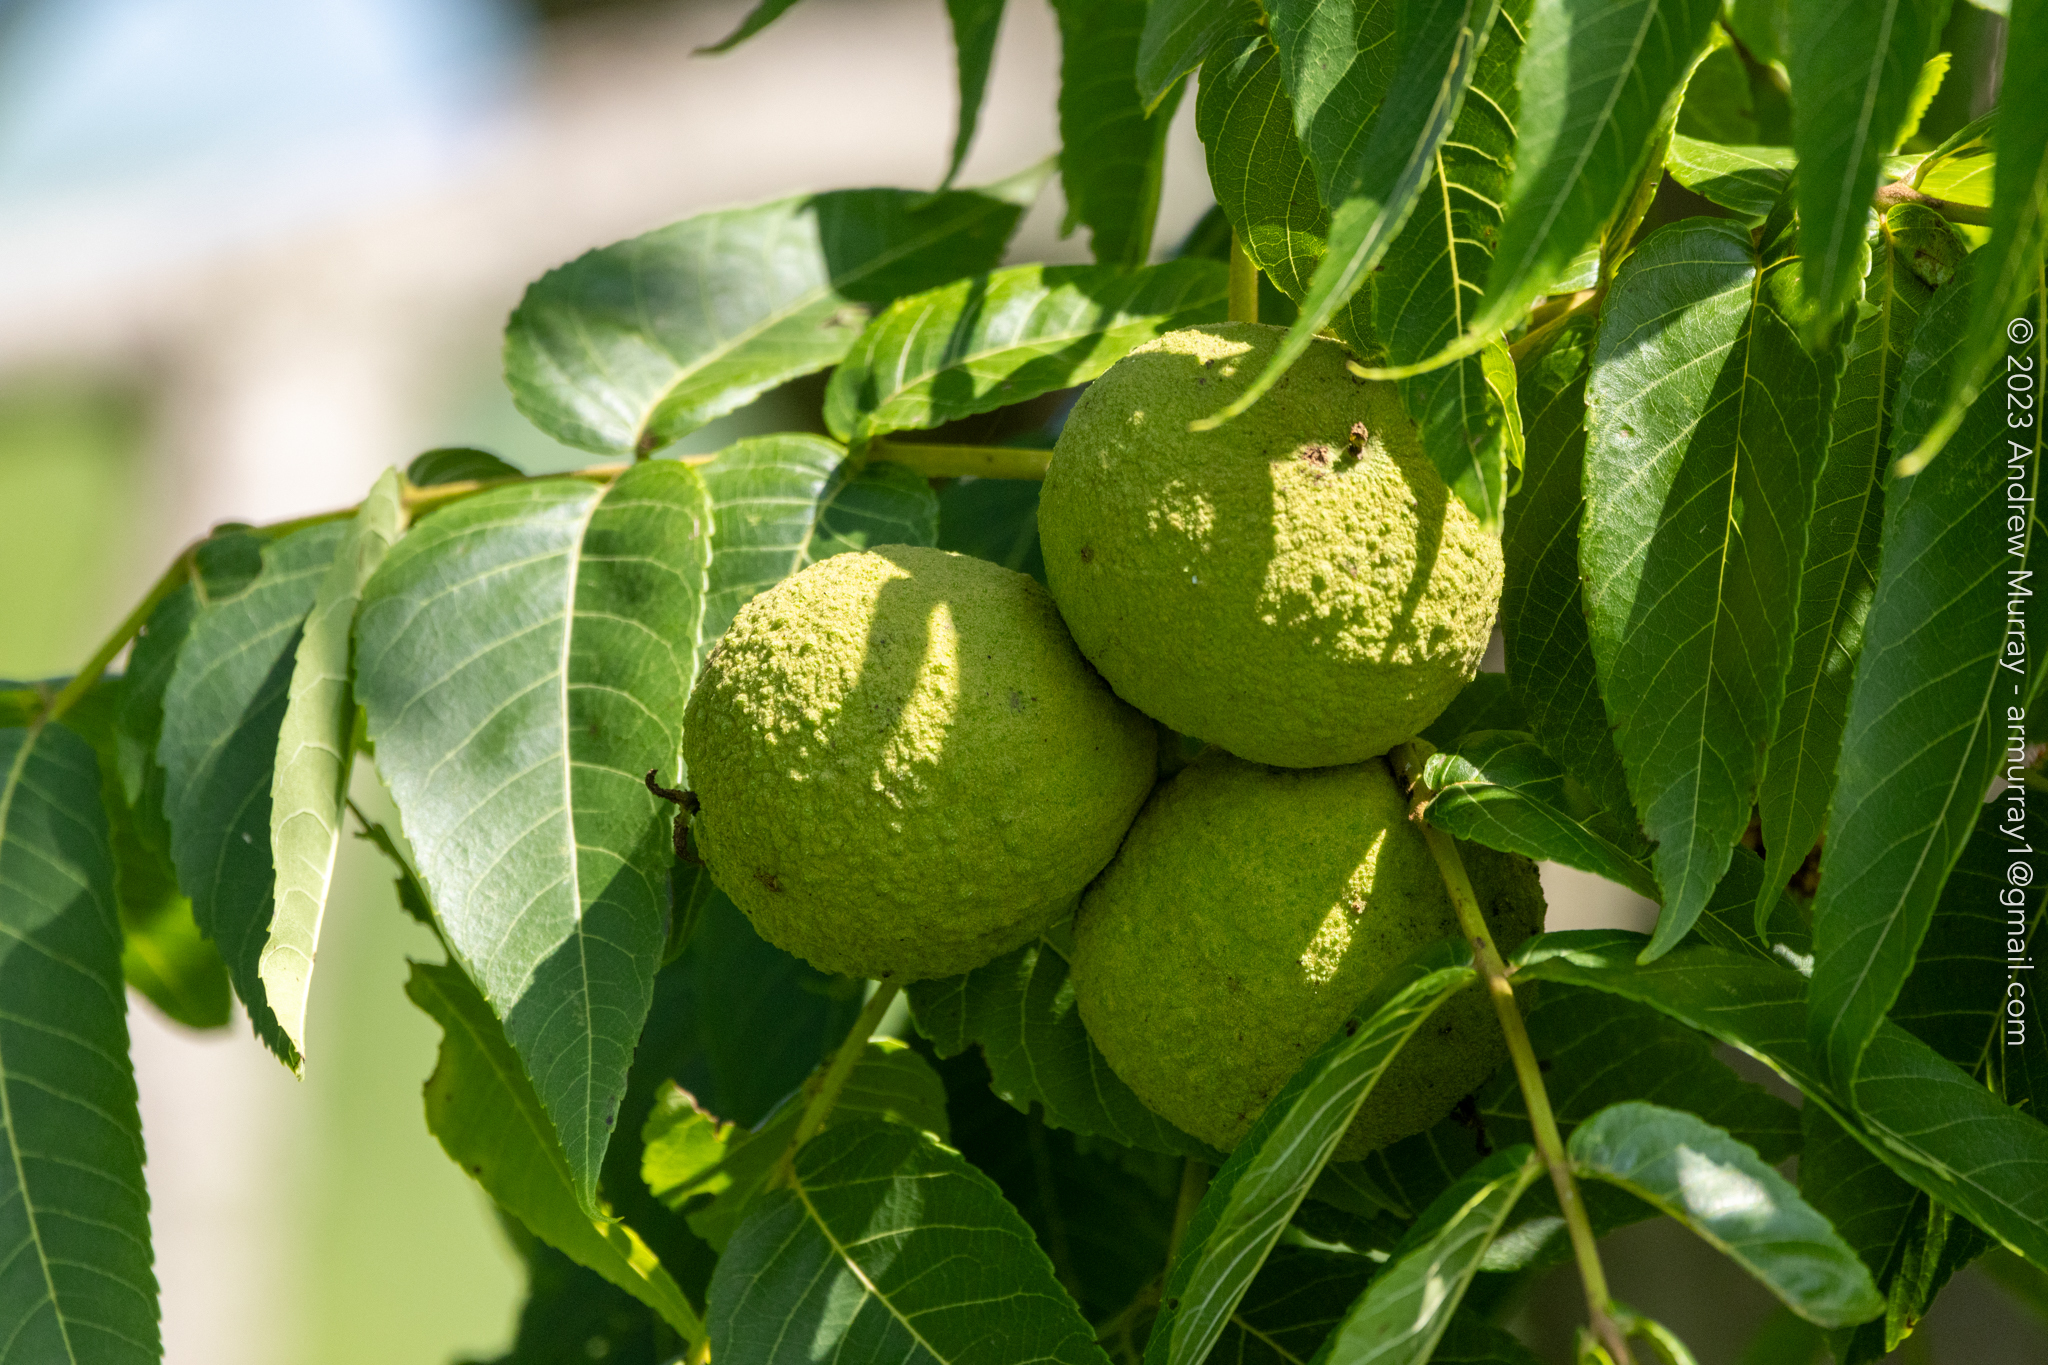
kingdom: Plantae
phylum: Tracheophyta
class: Magnoliopsida
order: Fagales
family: Juglandaceae
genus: Juglans
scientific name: Juglans nigra
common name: Black walnut
